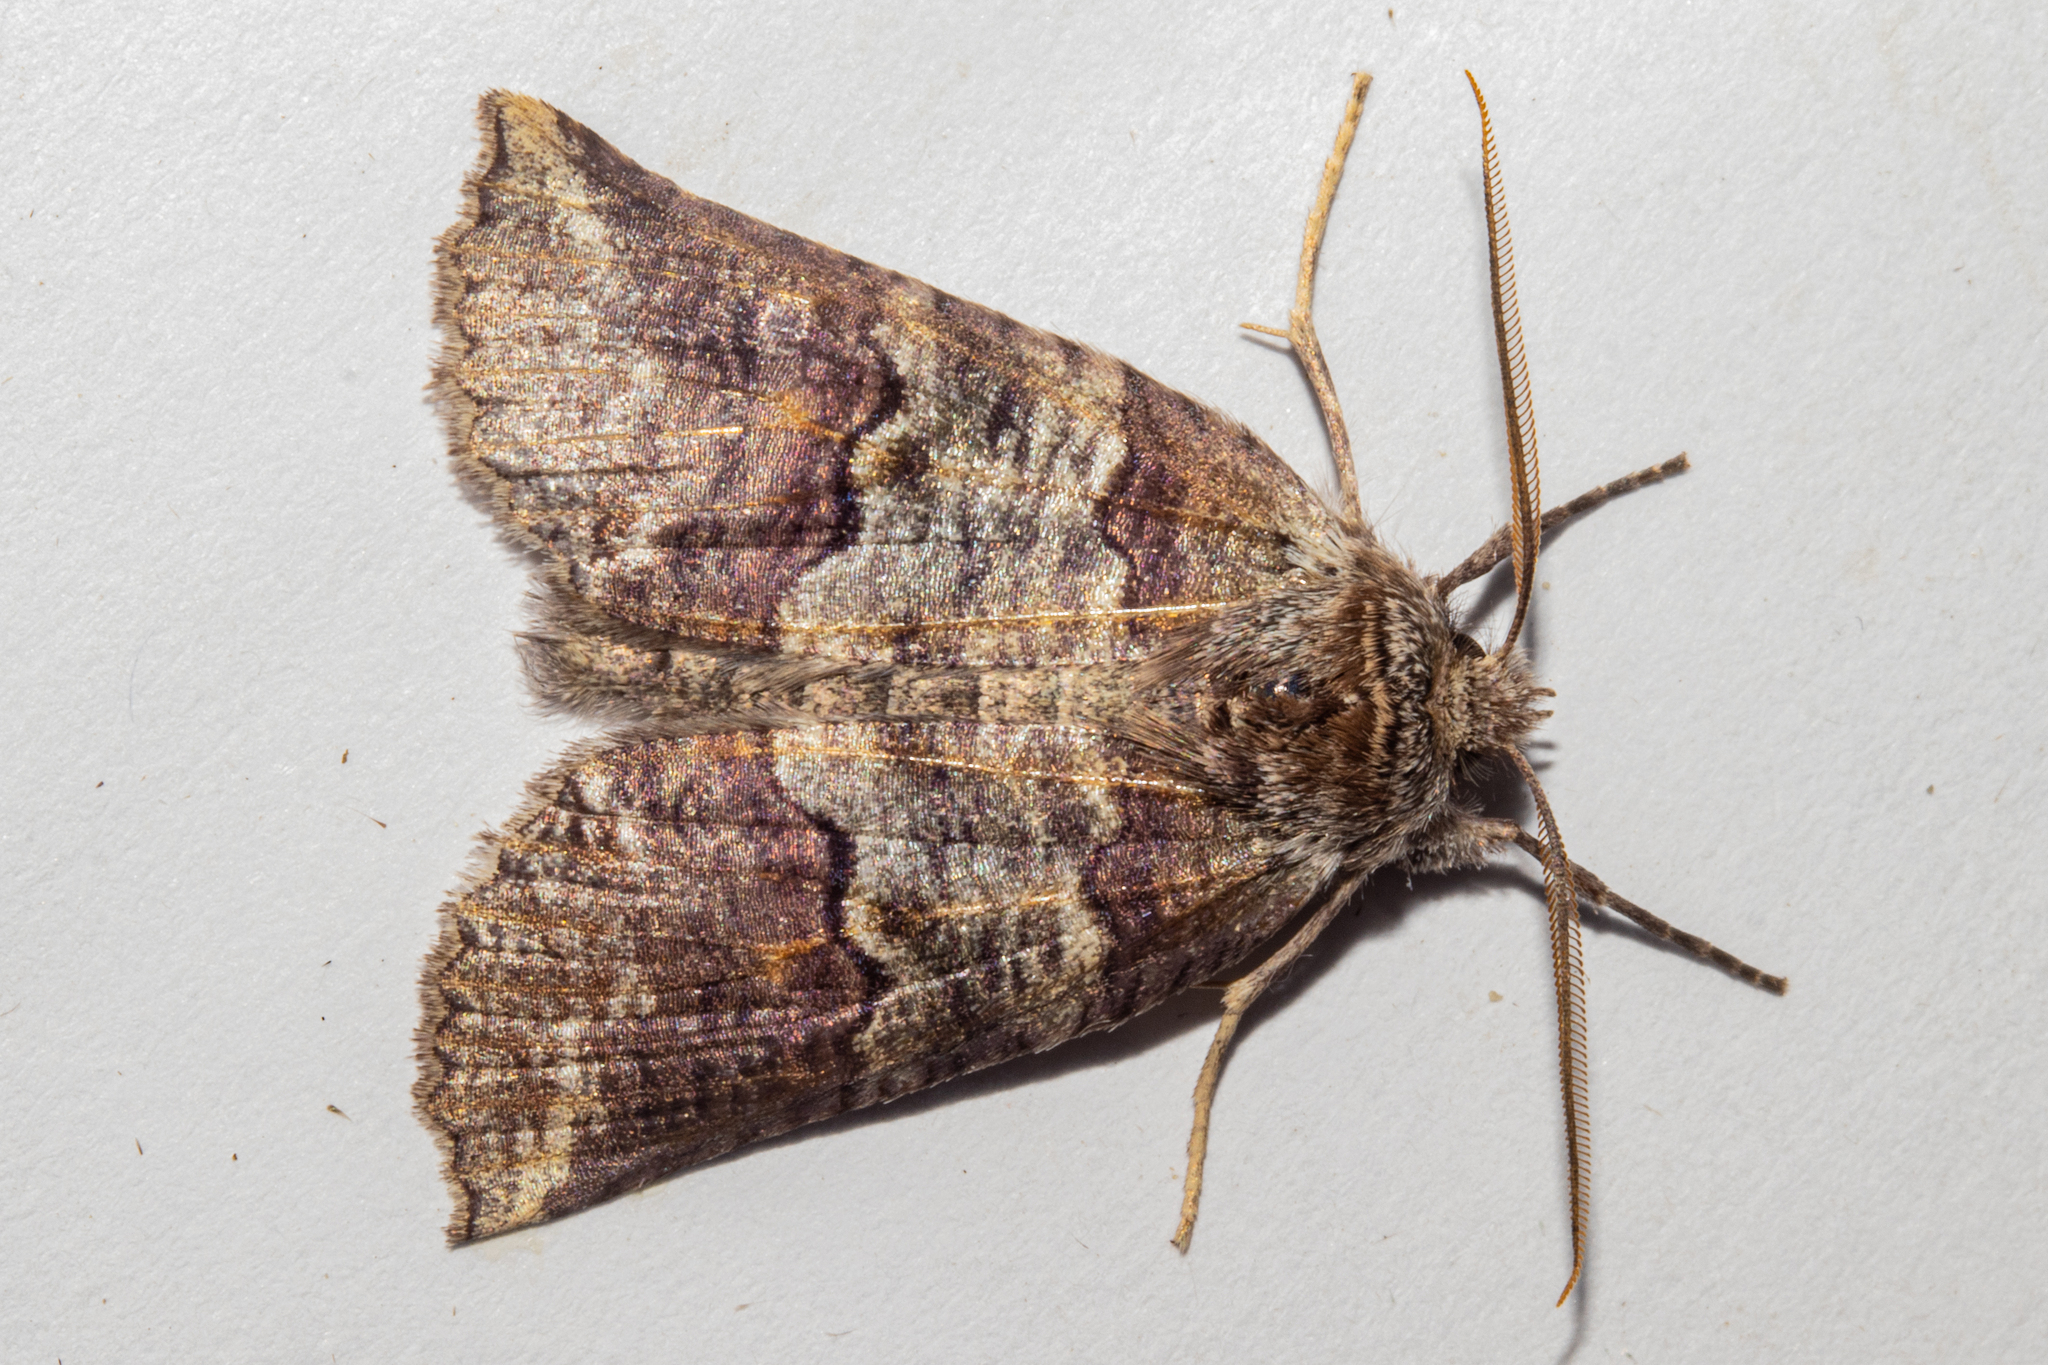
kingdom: Animalia
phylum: Arthropoda
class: Insecta
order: Lepidoptera
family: Geometridae
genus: Declana
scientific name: Declana
